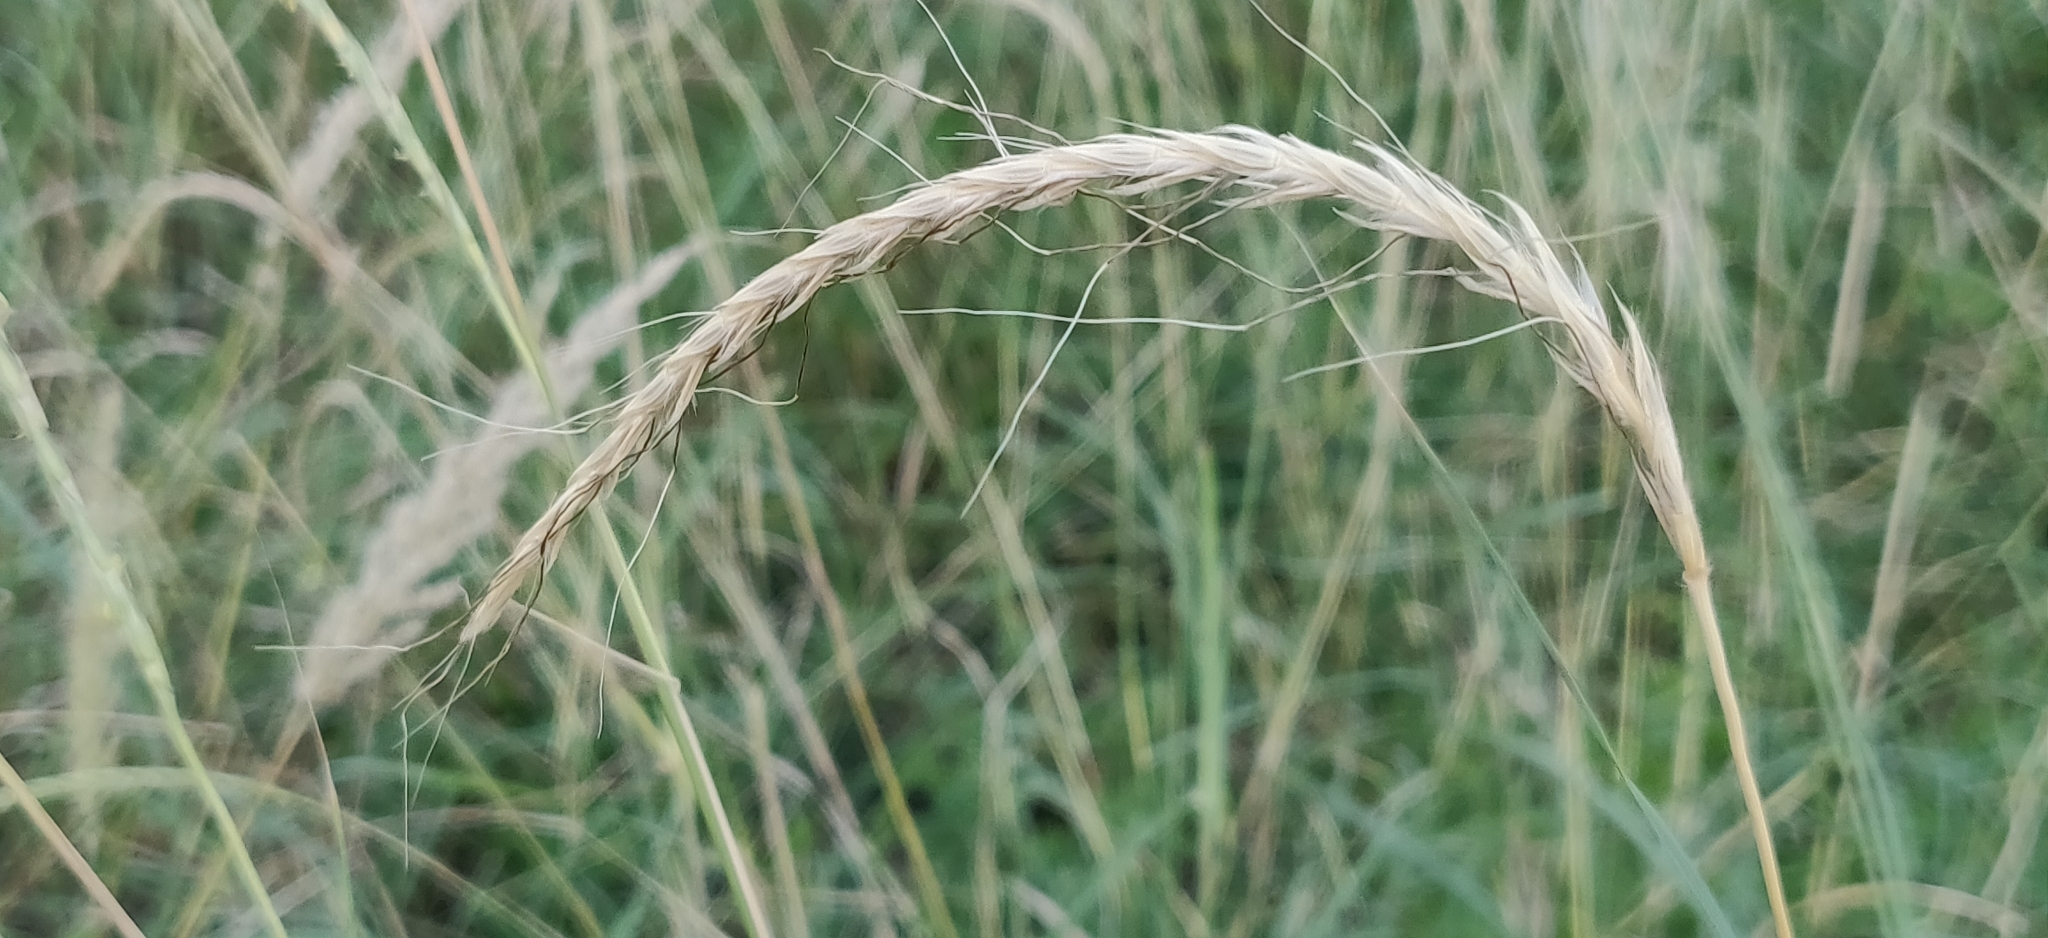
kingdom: Plantae
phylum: Tracheophyta
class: Liliopsida
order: Poales
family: Poaceae
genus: Sehima
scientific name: Sehima nervosa
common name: Rat-tail grass
